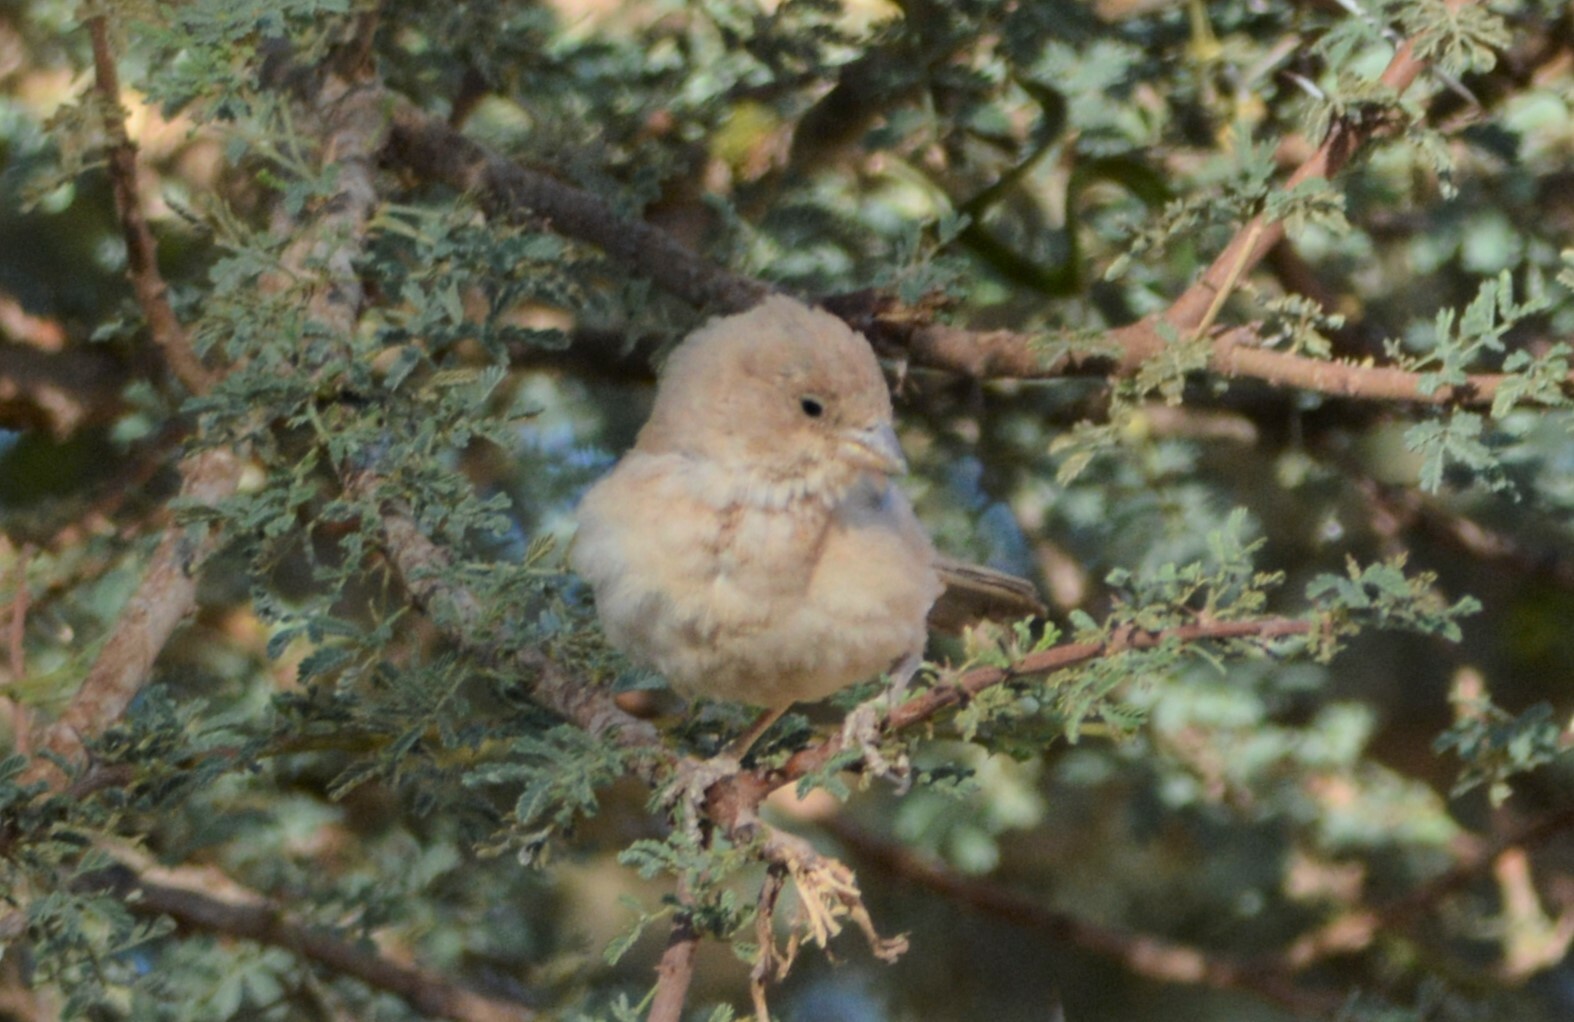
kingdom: Animalia
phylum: Chordata
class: Aves
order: Passeriformes
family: Passeridae
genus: Passer
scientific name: Passer simplex
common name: Desert sparrow
